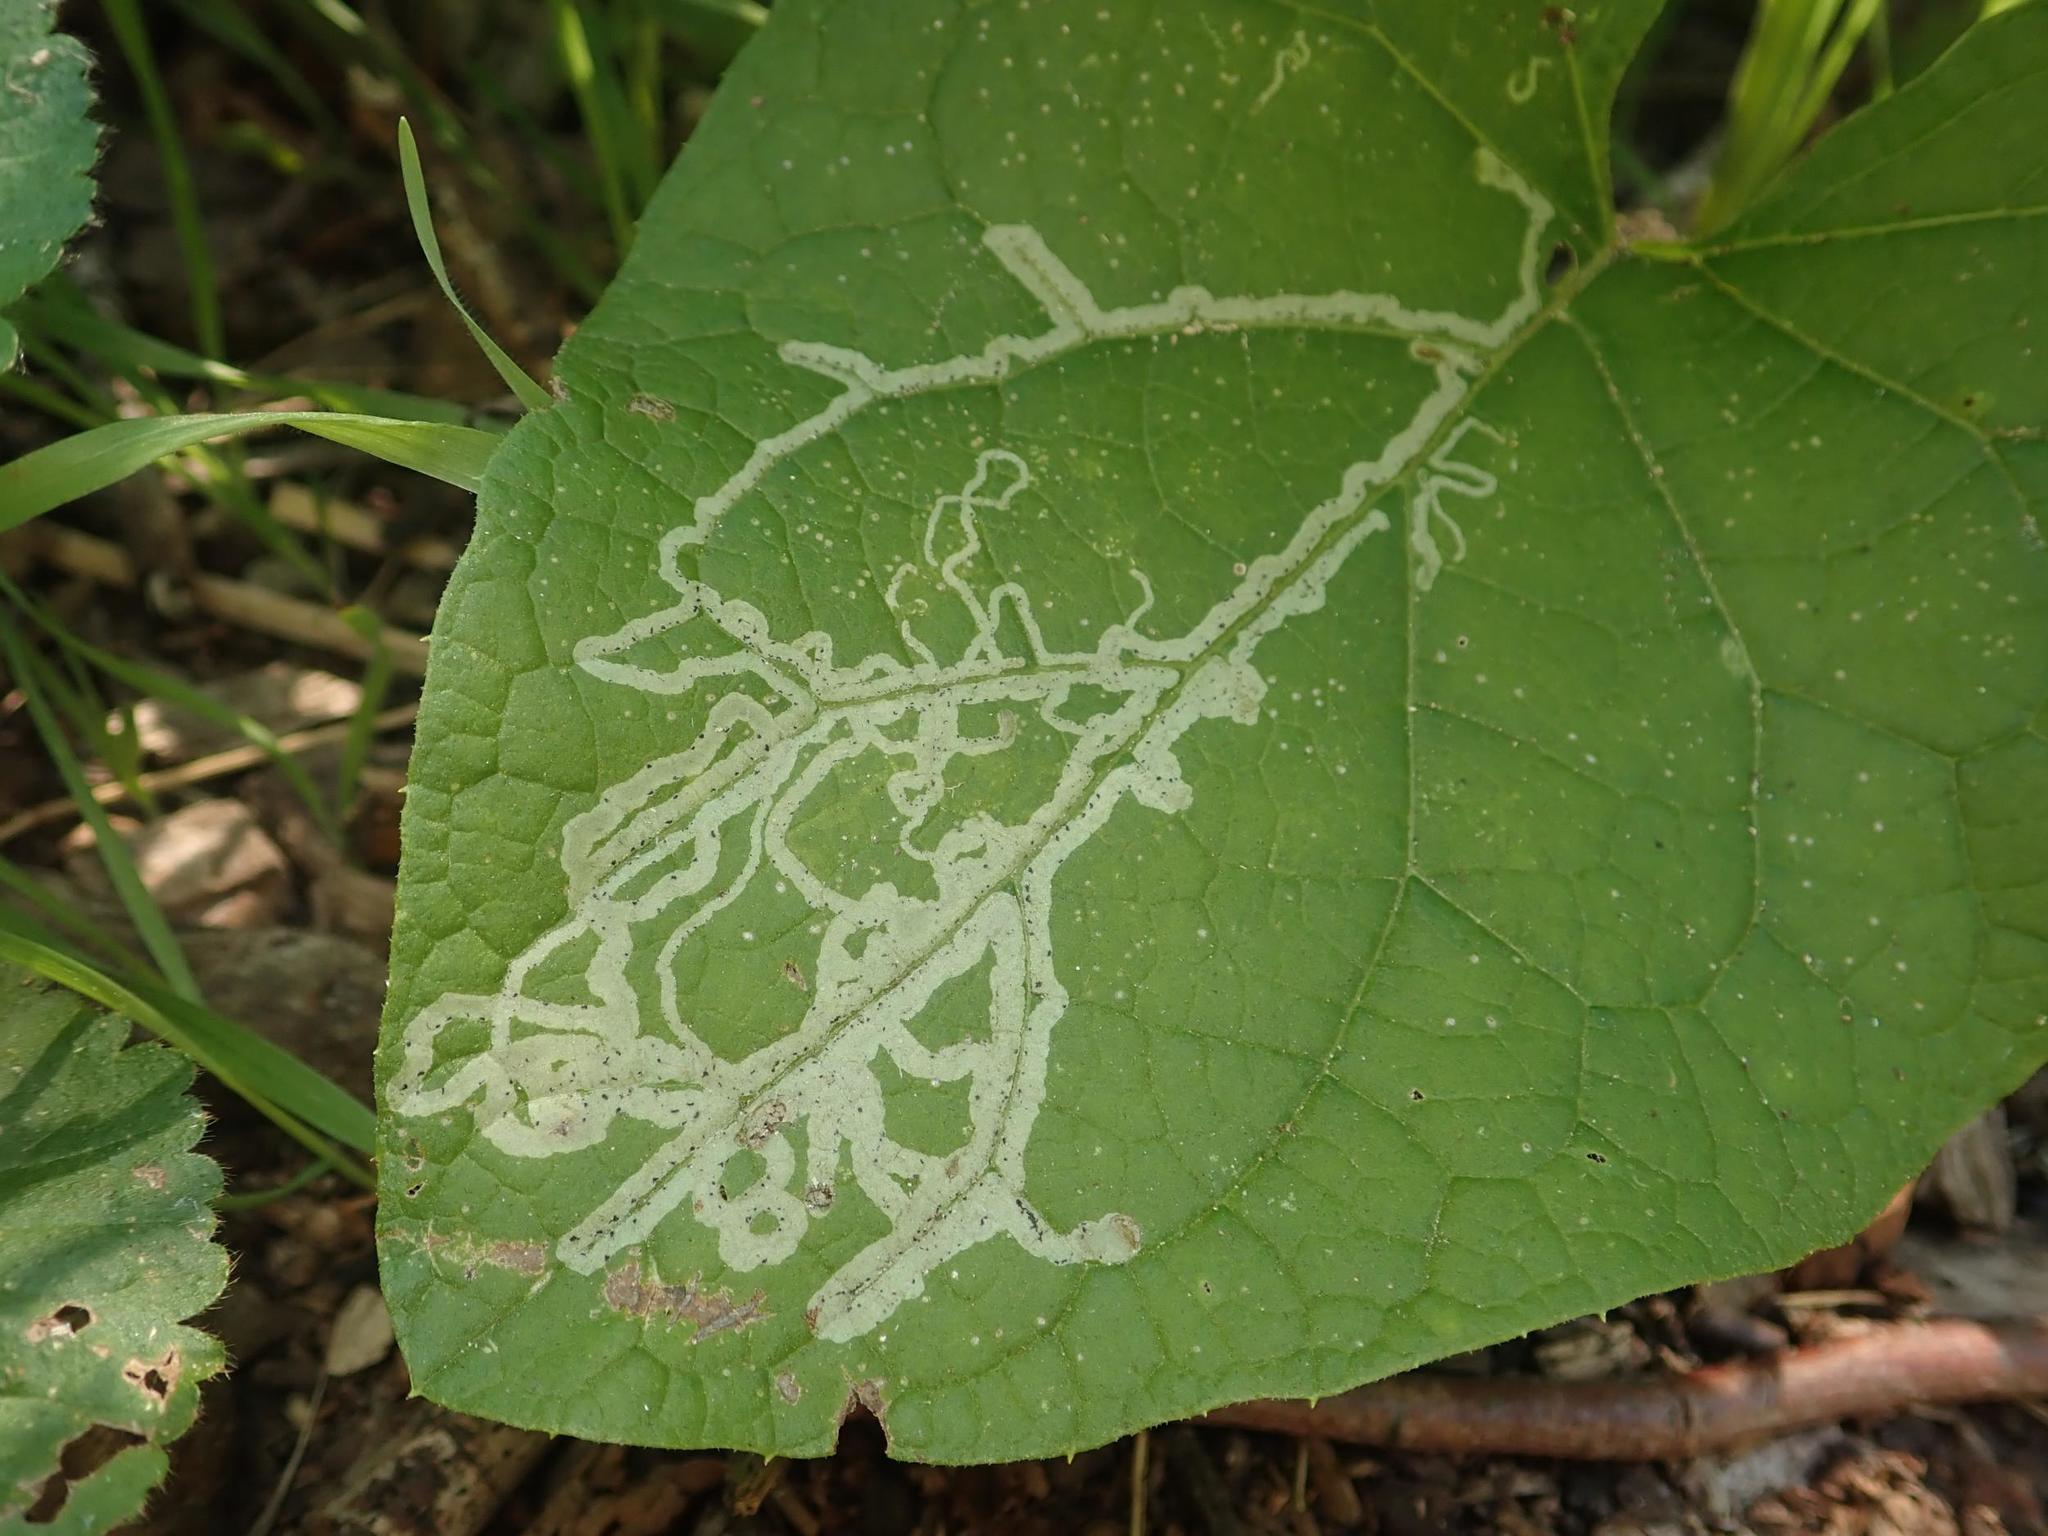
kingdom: Animalia
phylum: Arthropoda
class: Insecta
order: Diptera
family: Agromyzidae
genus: Phytomyza
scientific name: Phytomyza lappae
